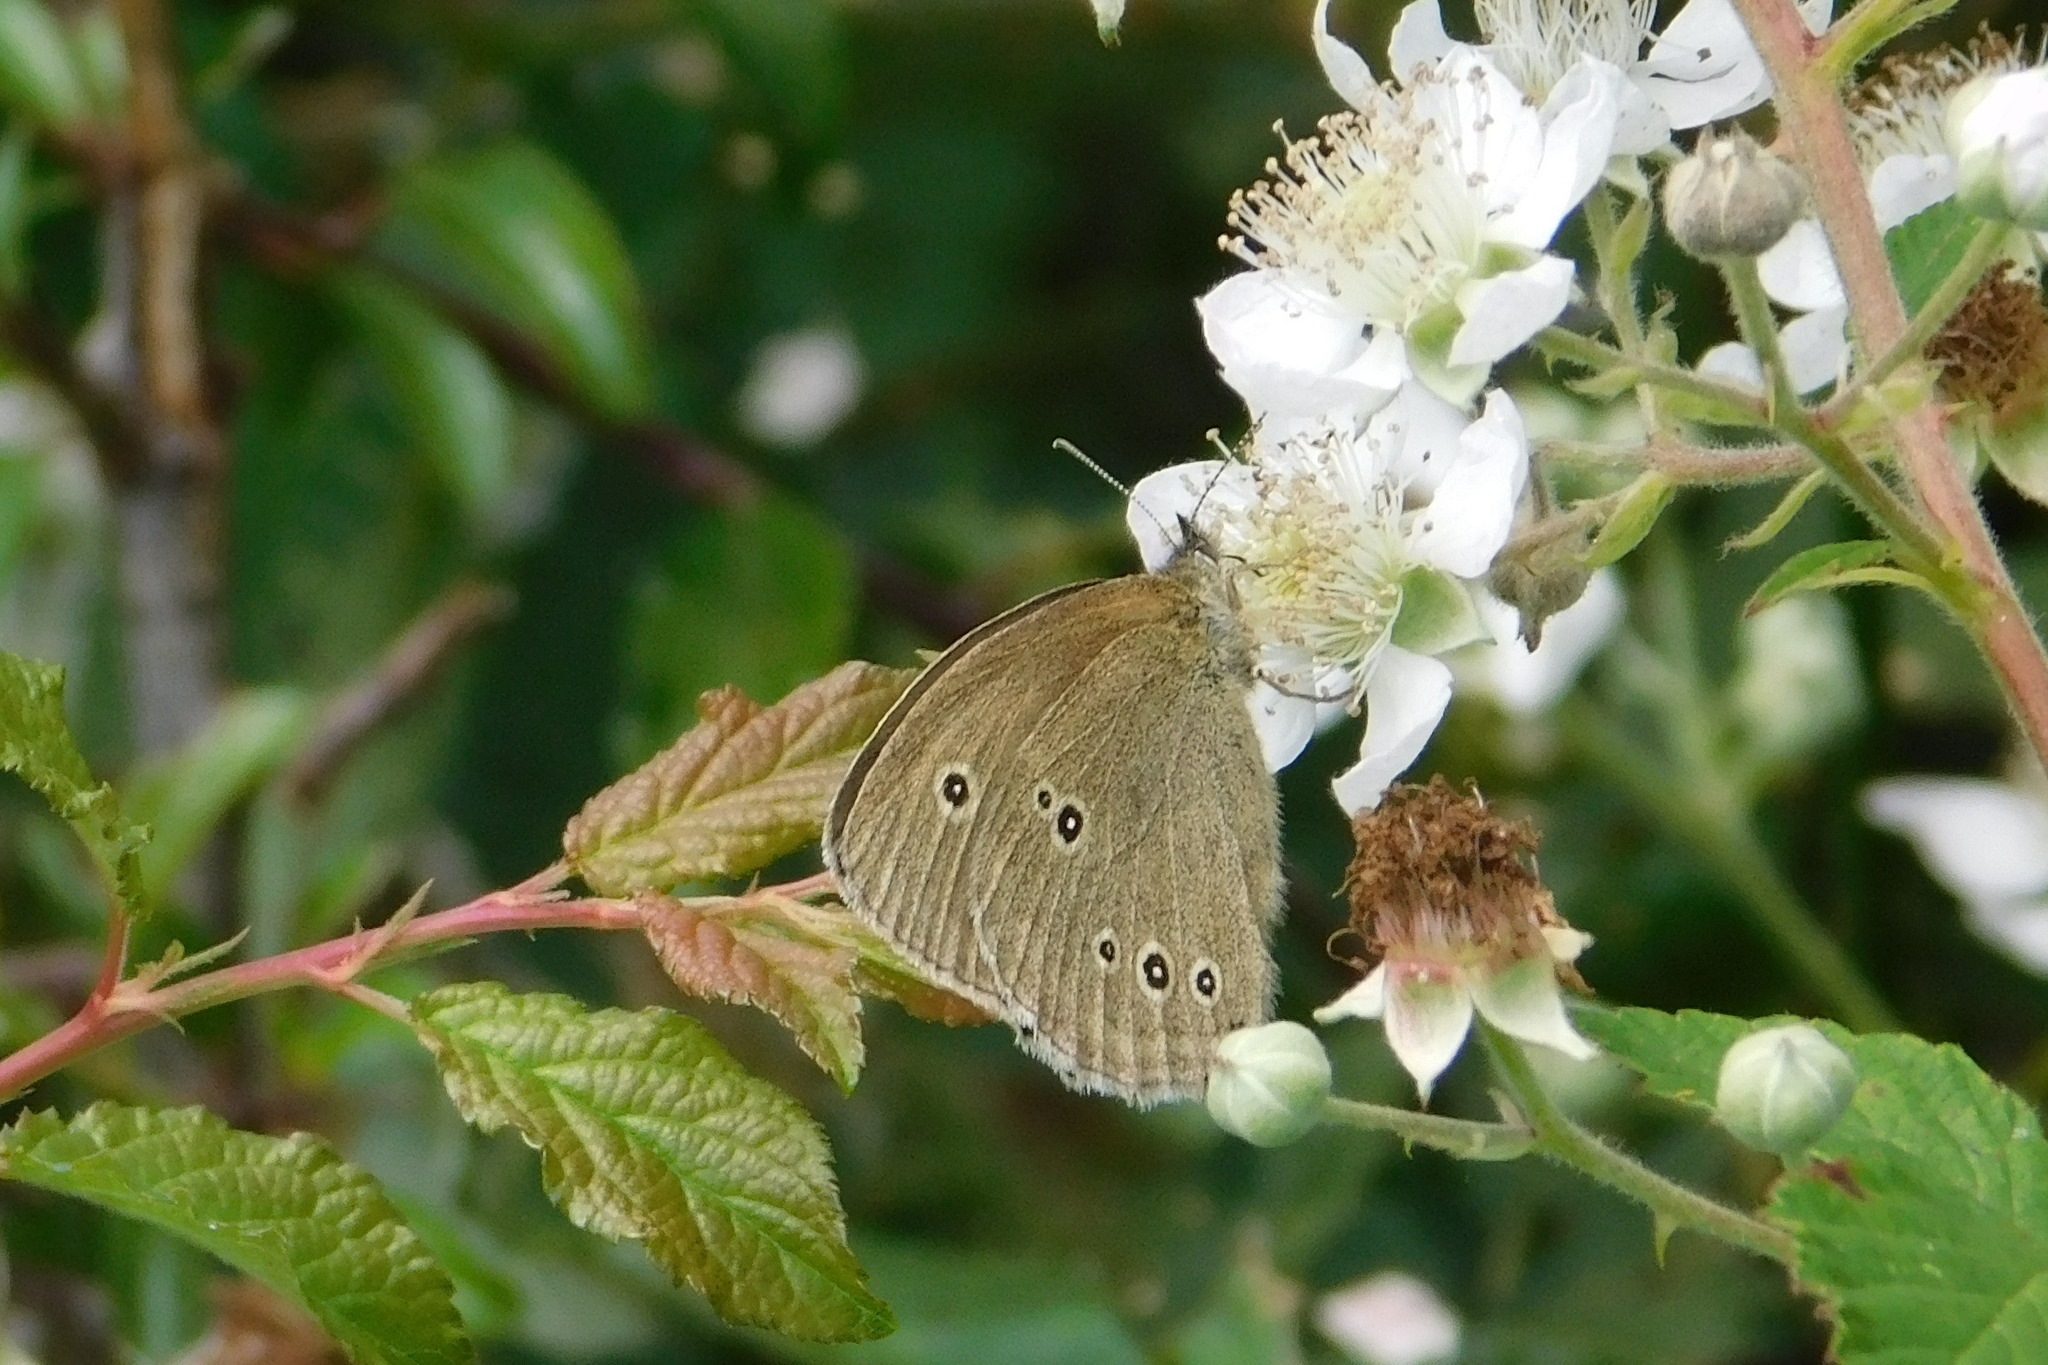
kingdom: Animalia
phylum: Arthropoda
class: Insecta
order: Lepidoptera
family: Nymphalidae
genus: Aphantopus
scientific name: Aphantopus hyperantus
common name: Ringlet
